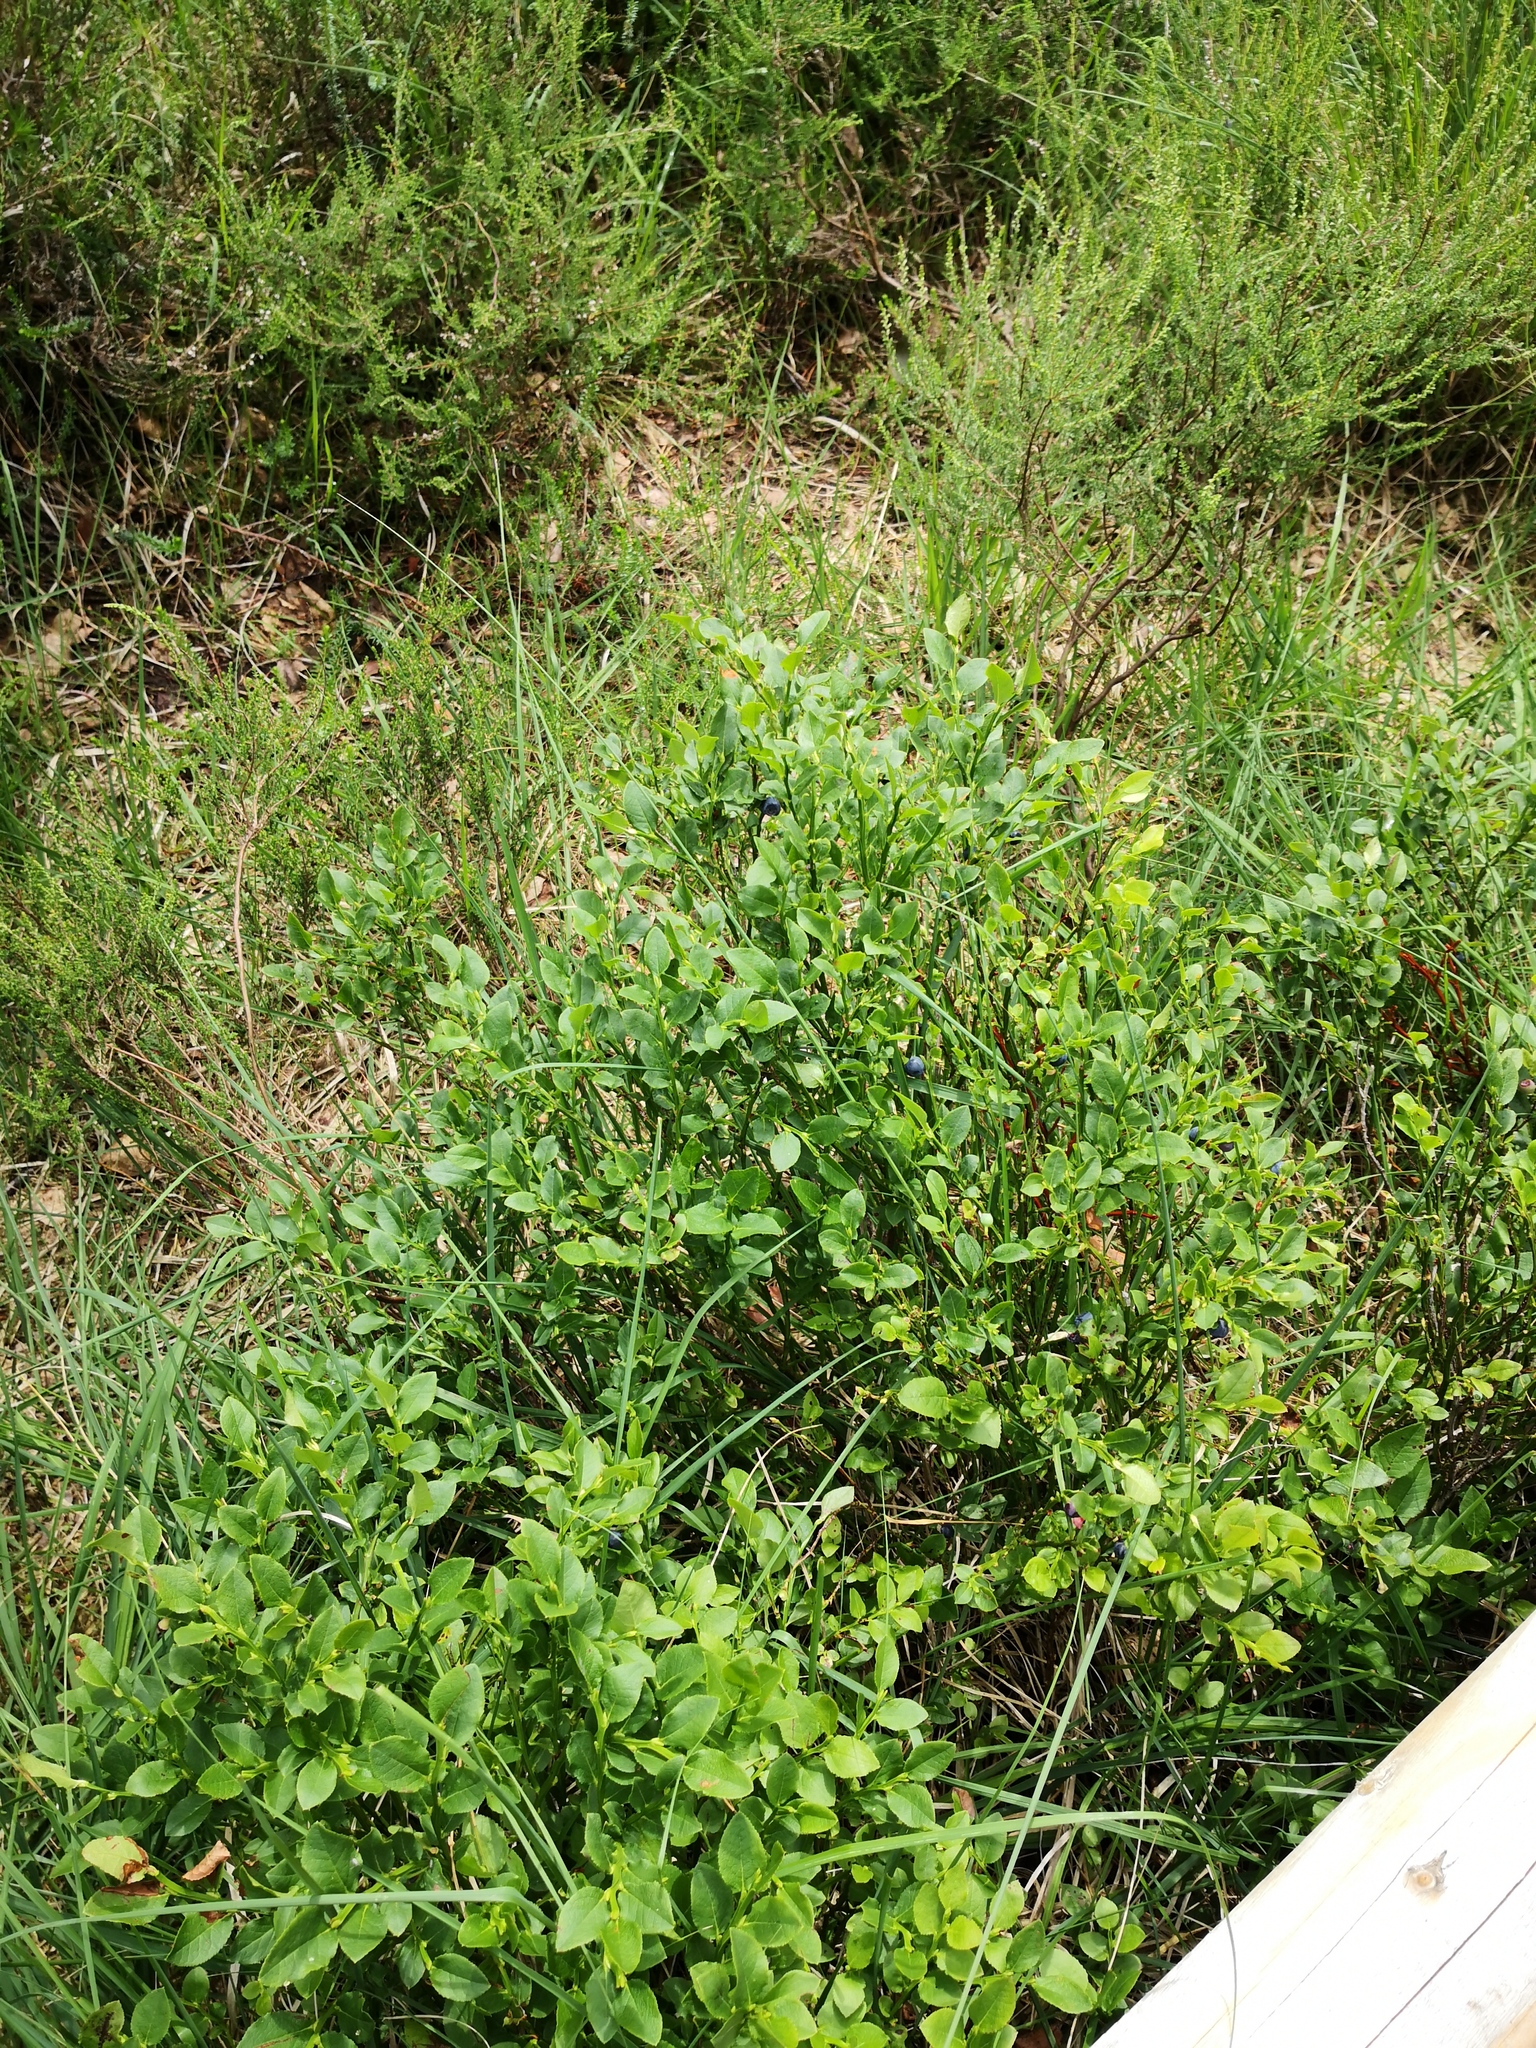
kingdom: Plantae
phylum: Tracheophyta
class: Magnoliopsida
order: Ericales
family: Ericaceae
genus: Vaccinium
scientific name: Vaccinium myrtillus
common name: Bilberry
